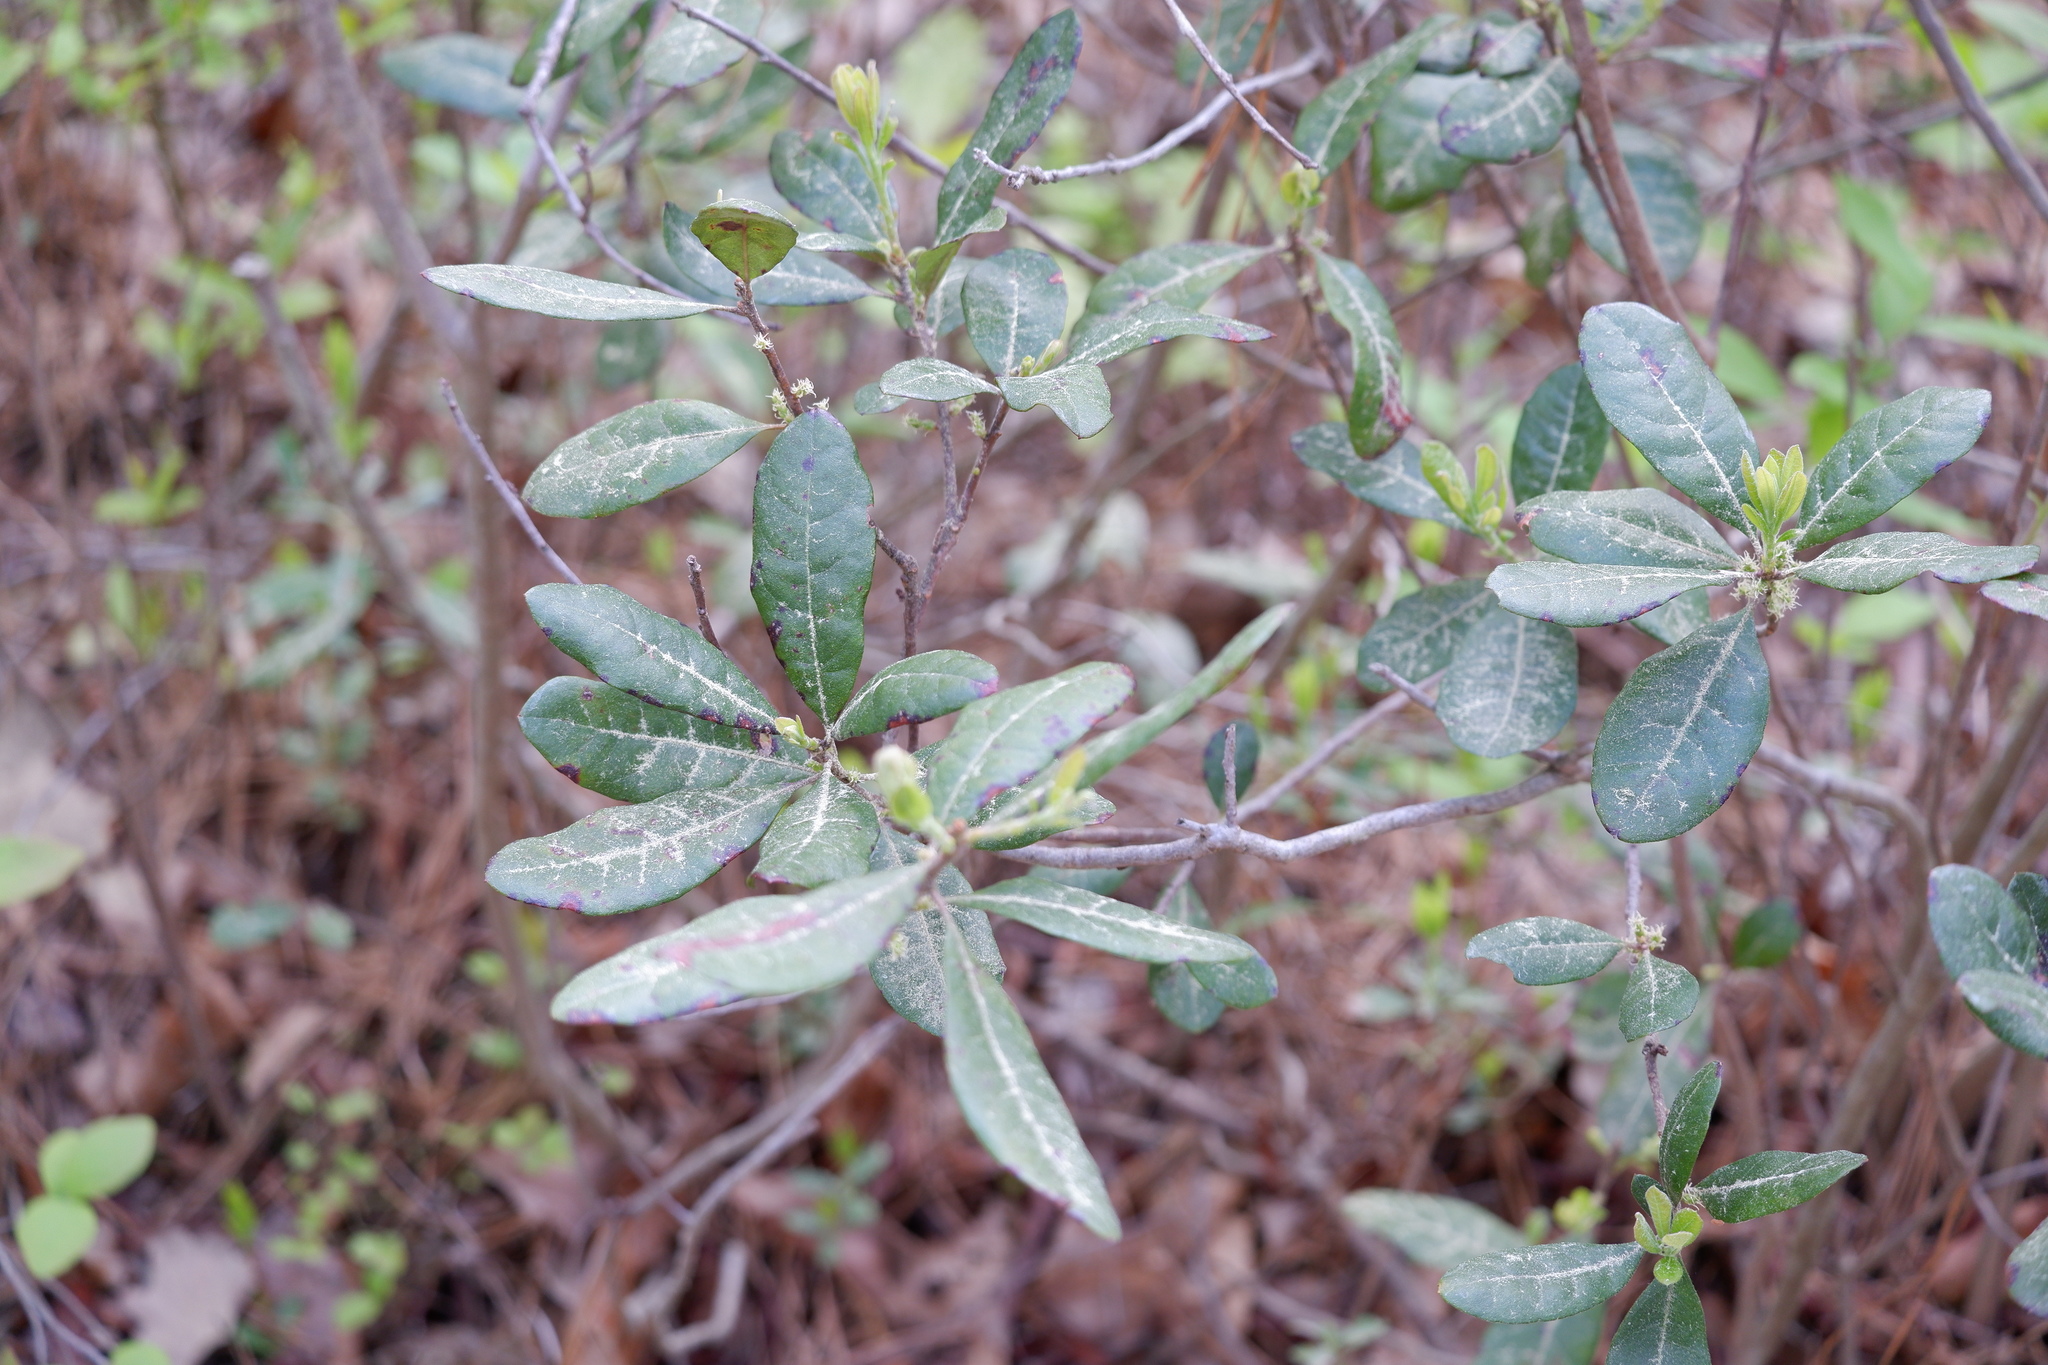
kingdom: Plantae
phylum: Tracheophyta
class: Magnoliopsida
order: Fagales
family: Myricaceae
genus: Morella
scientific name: Morella caroliniensis
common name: Evergreen bayberry
